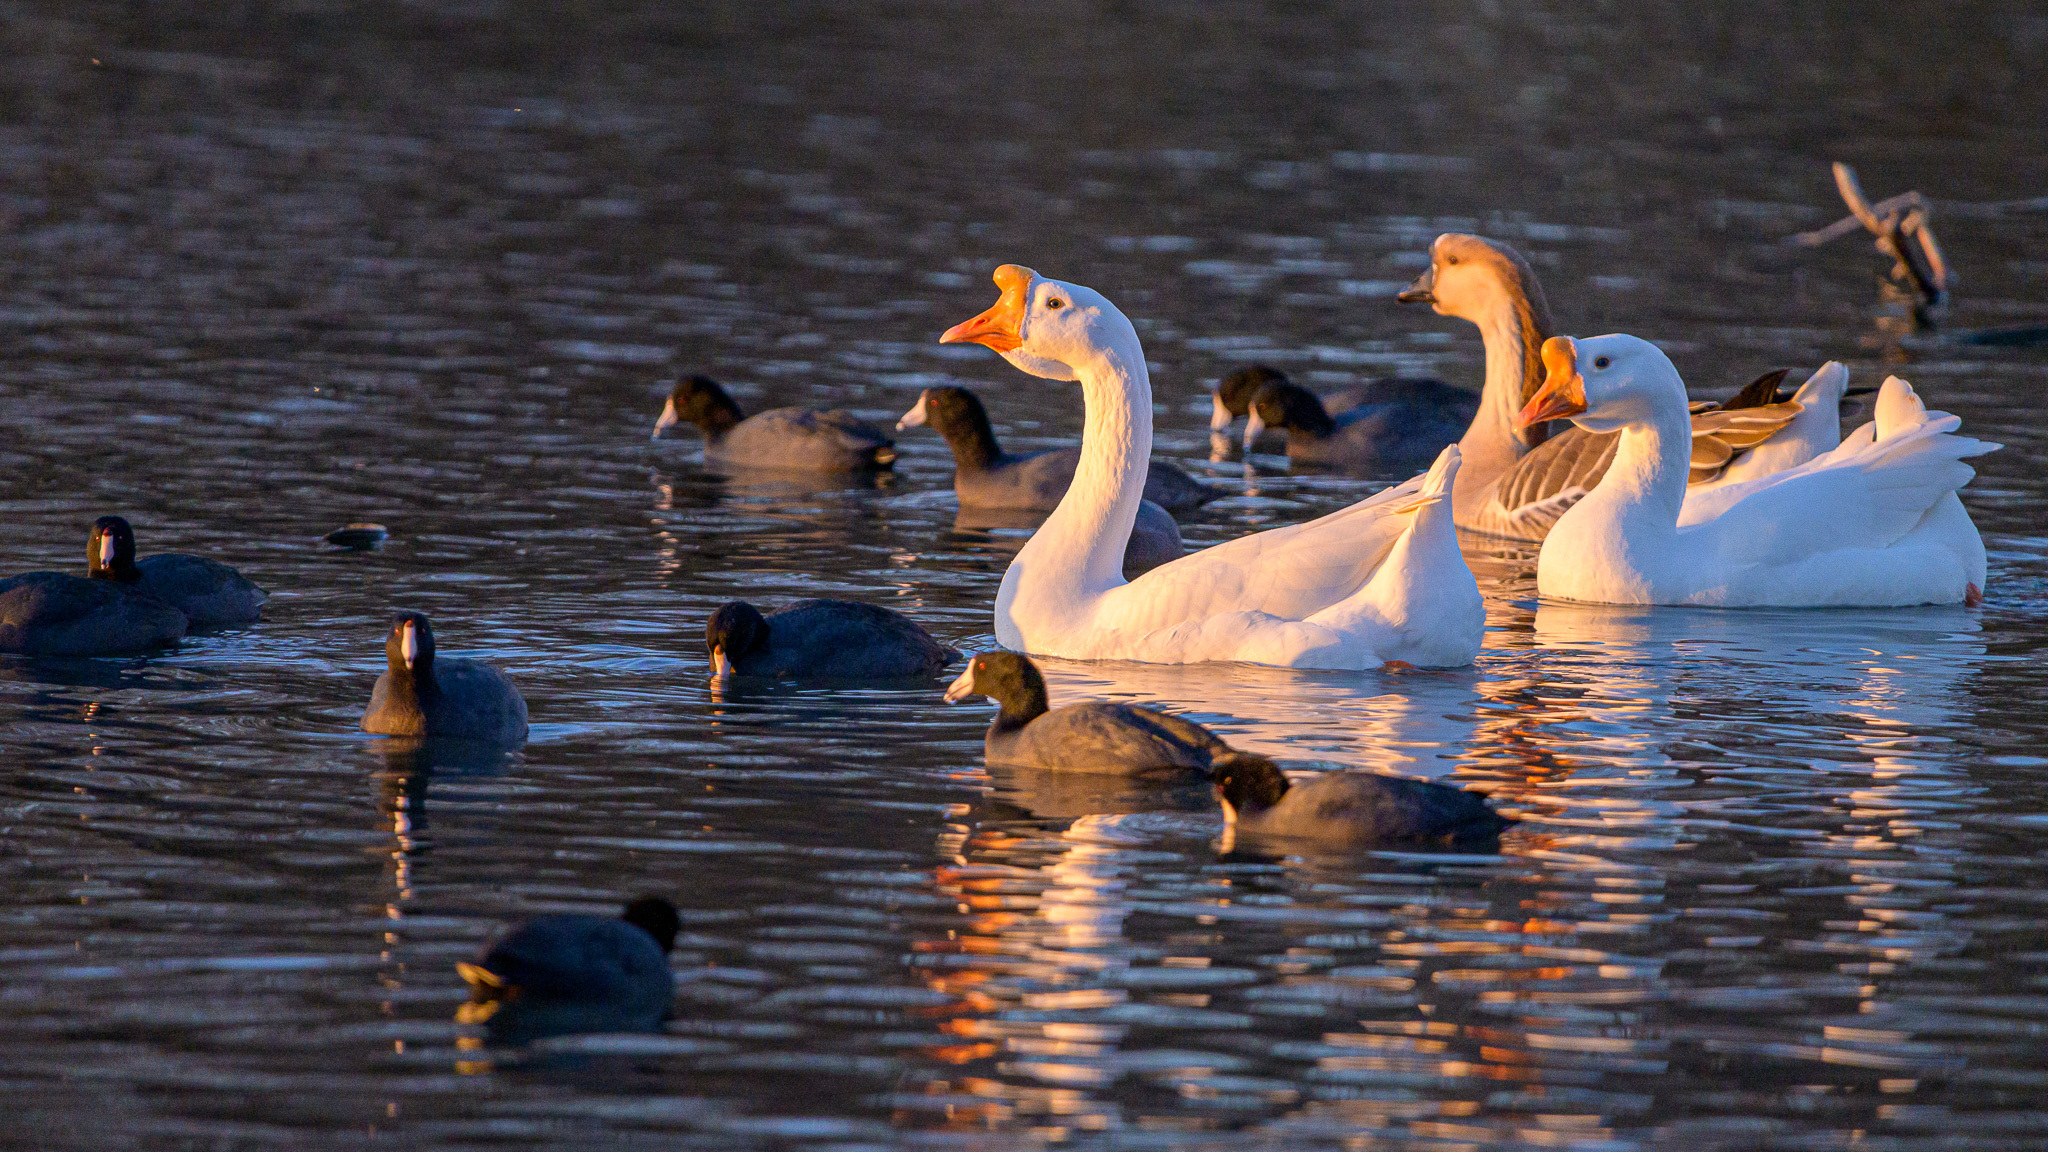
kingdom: Animalia
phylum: Chordata
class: Aves
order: Anseriformes
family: Anatidae
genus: Anser
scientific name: Anser cygnoides
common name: Swan goose
